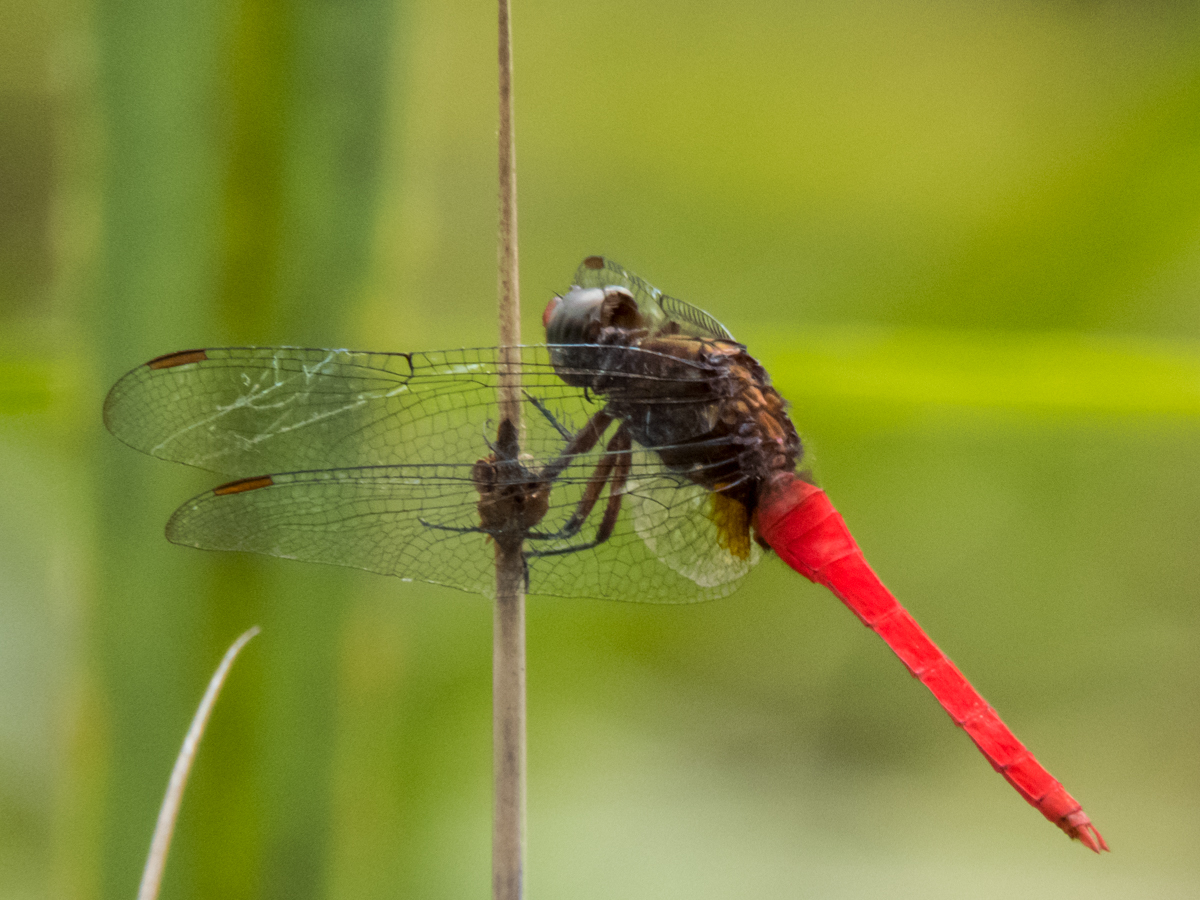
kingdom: Animalia
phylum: Arthropoda
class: Insecta
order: Odonata
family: Libellulidae
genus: Orthetrum
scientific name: Orthetrum chrysis
